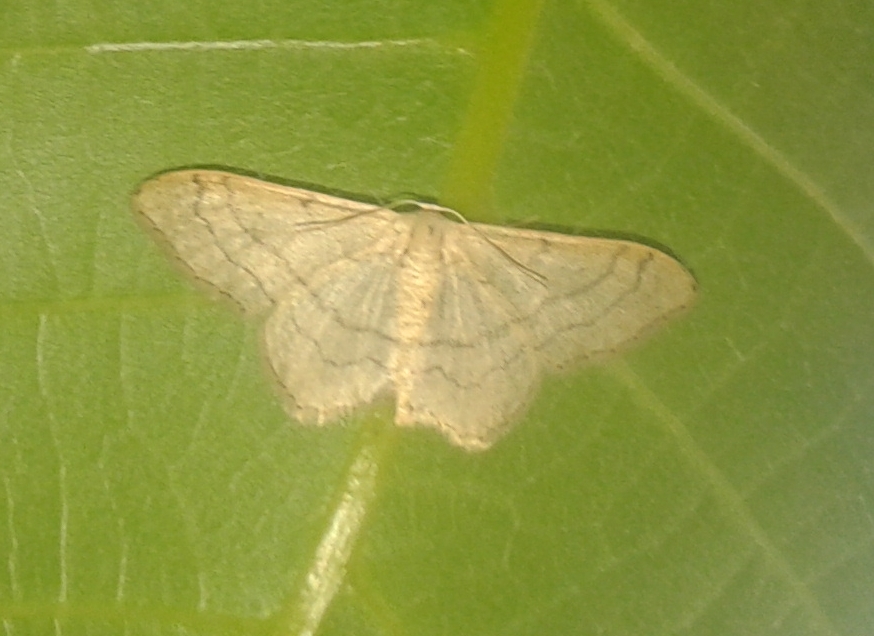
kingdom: Animalia
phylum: Arthropoda
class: Insecta
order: Lepidoptera
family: Geometridae
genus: Idaea
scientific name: Idaea aversata
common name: Riband wave
